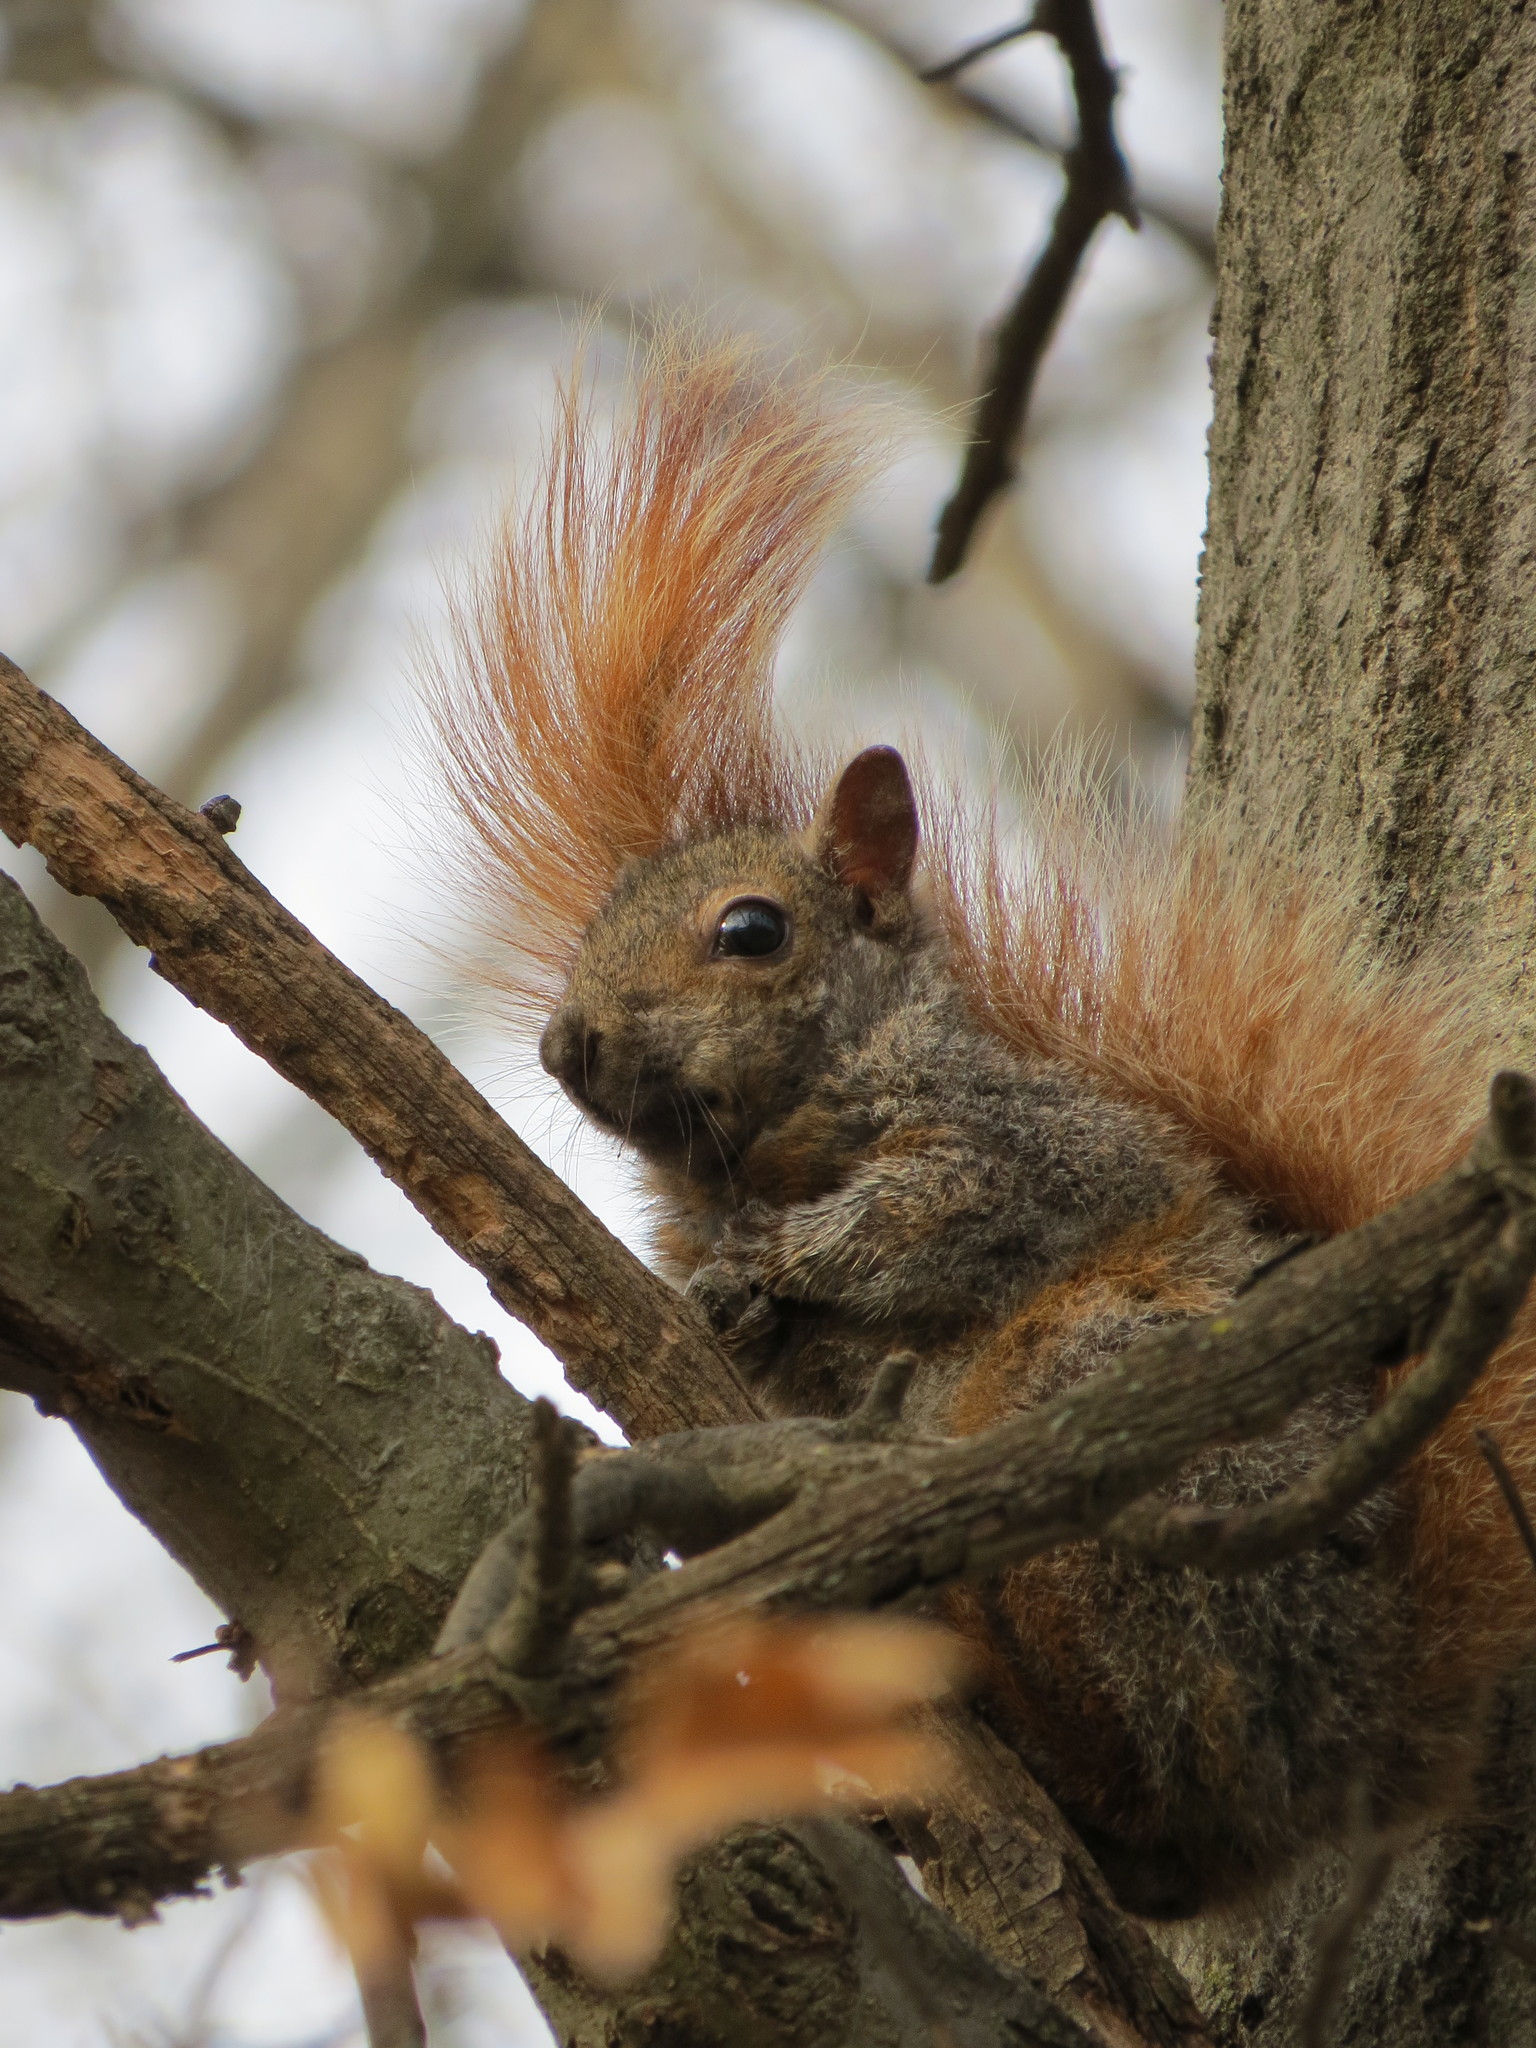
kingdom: Animalia
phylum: Chordata
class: Mammalia
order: Rodentia
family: Sciuridae
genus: Sciurus
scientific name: Sciurus carolinensis
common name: Eastern gray squirrel
